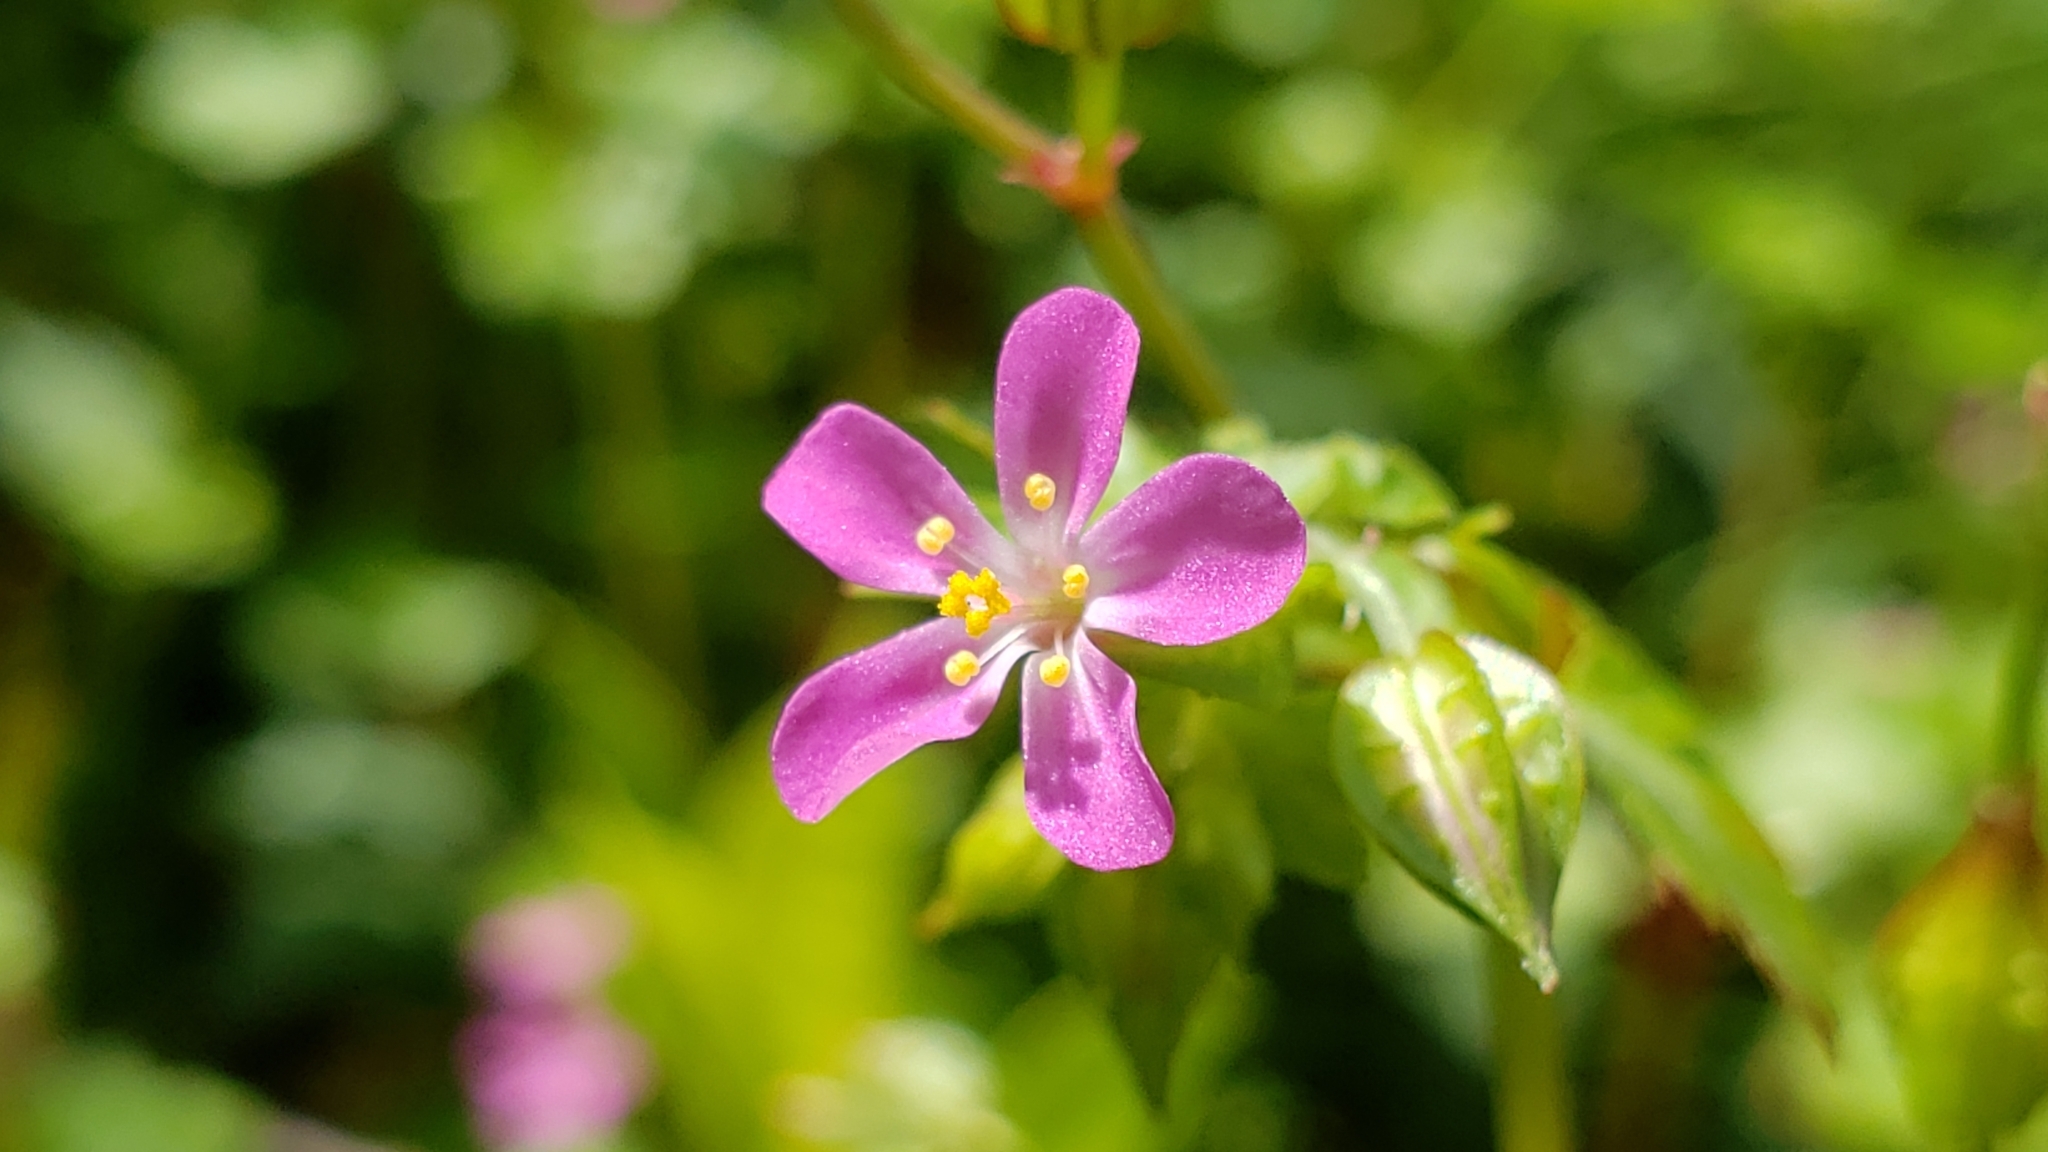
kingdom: Plantae
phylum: Tracheophyta
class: Magnoliopsida
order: Geraniales
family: Geraniaceae
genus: Geranium
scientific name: Geranium lucidum
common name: Shining crane's-bill
